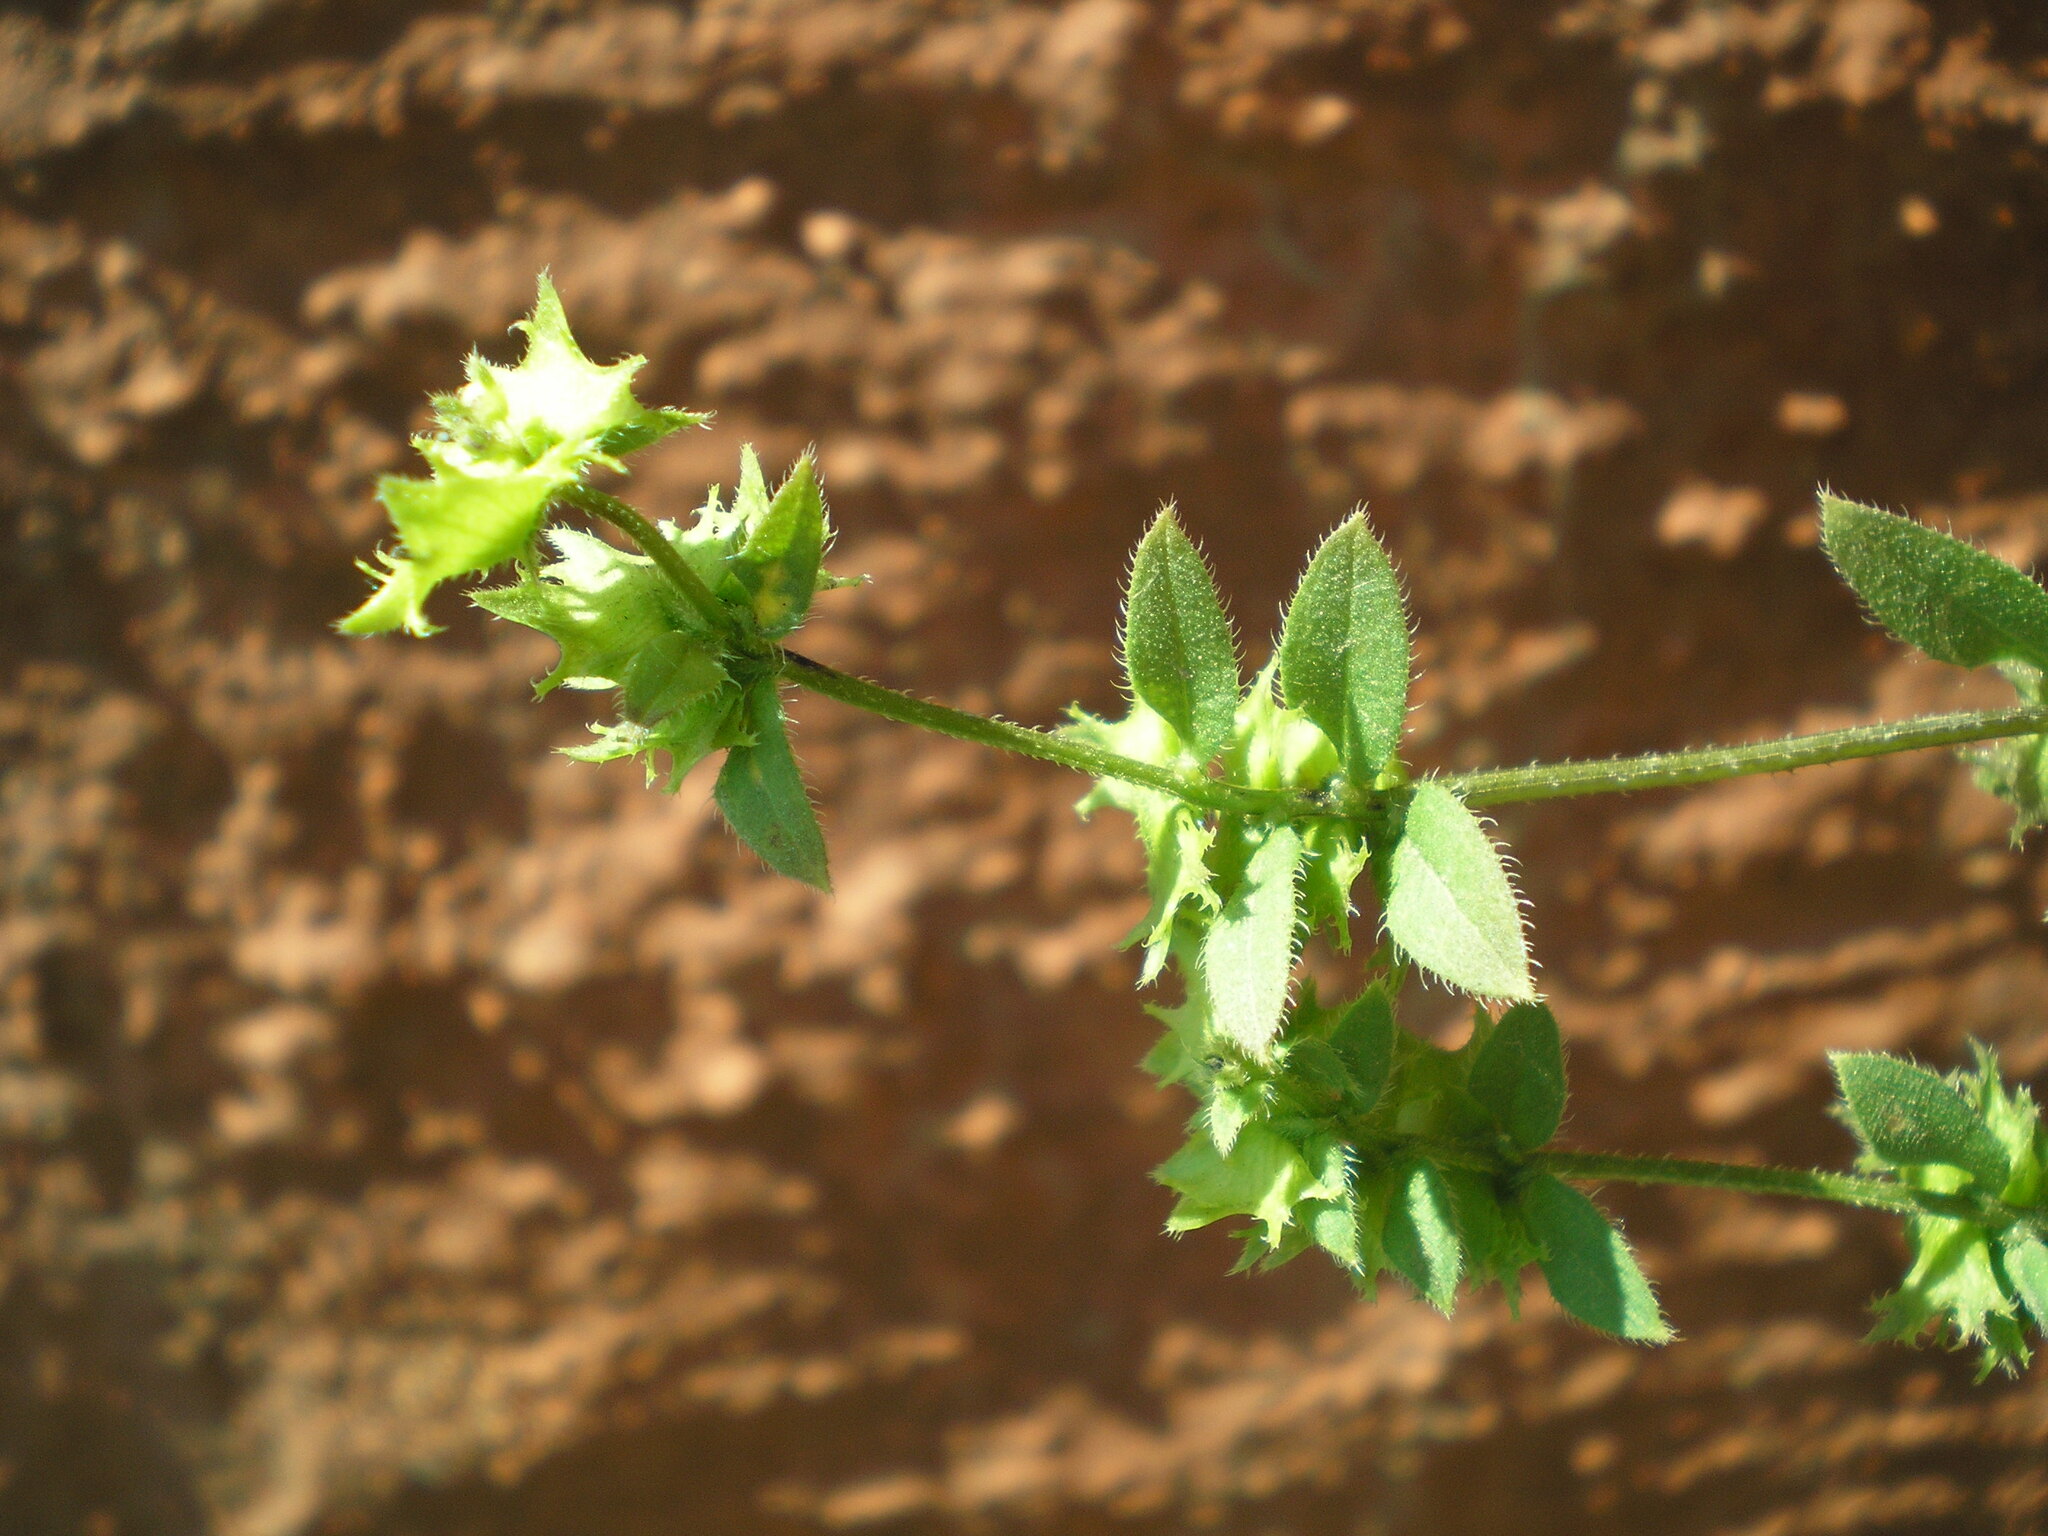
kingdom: Plantae
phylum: Tracheophyta
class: Magnoliopsida
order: Boraginales
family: Boraginaceae
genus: Asperugo
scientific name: Asperugo procumbens
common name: Madwort
